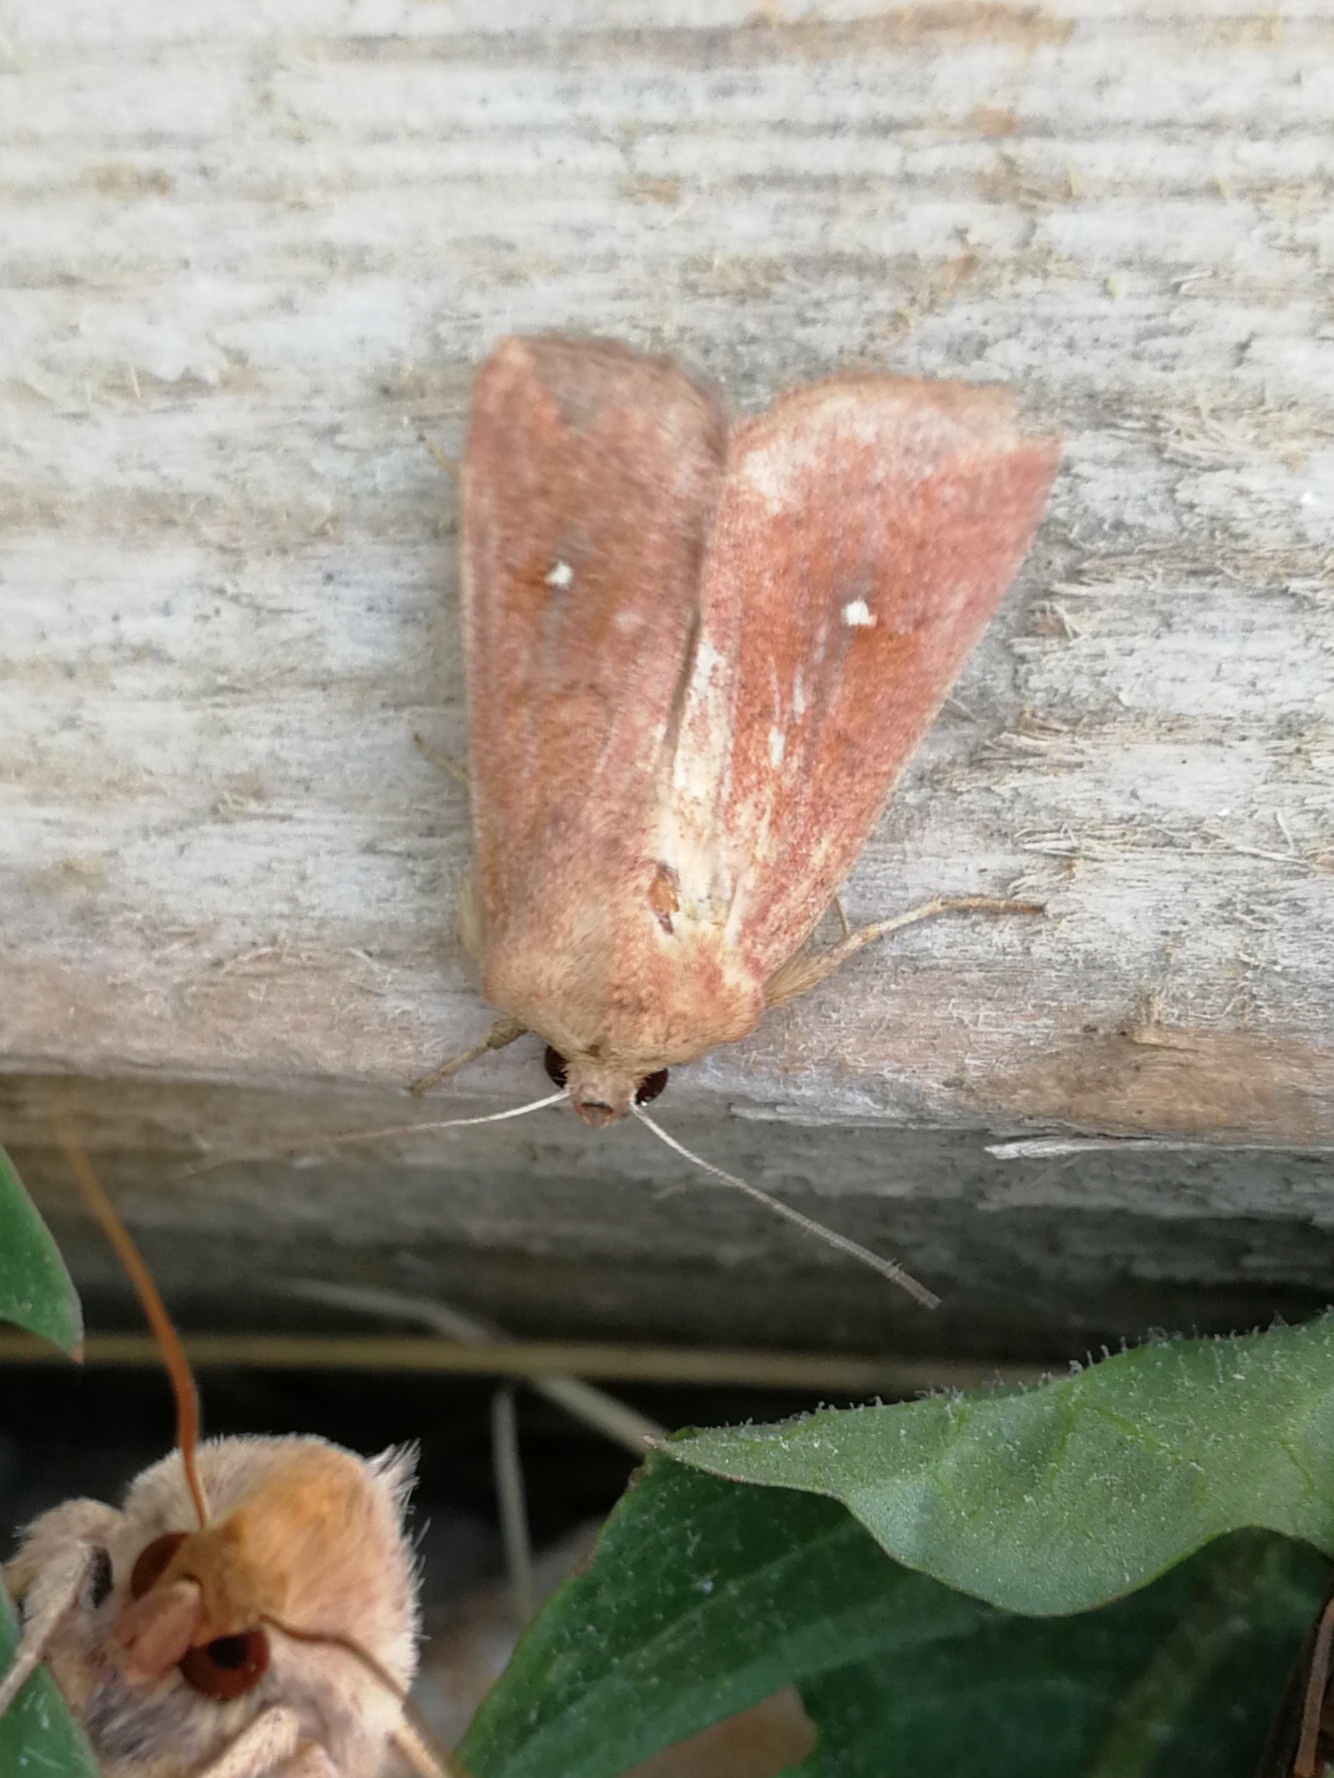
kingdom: Animalia
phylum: Arthropoda
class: Insecta
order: Lepidoptera
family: Noctuidae
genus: Mythimna
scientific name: Mythimna albipuncta
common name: White-point
